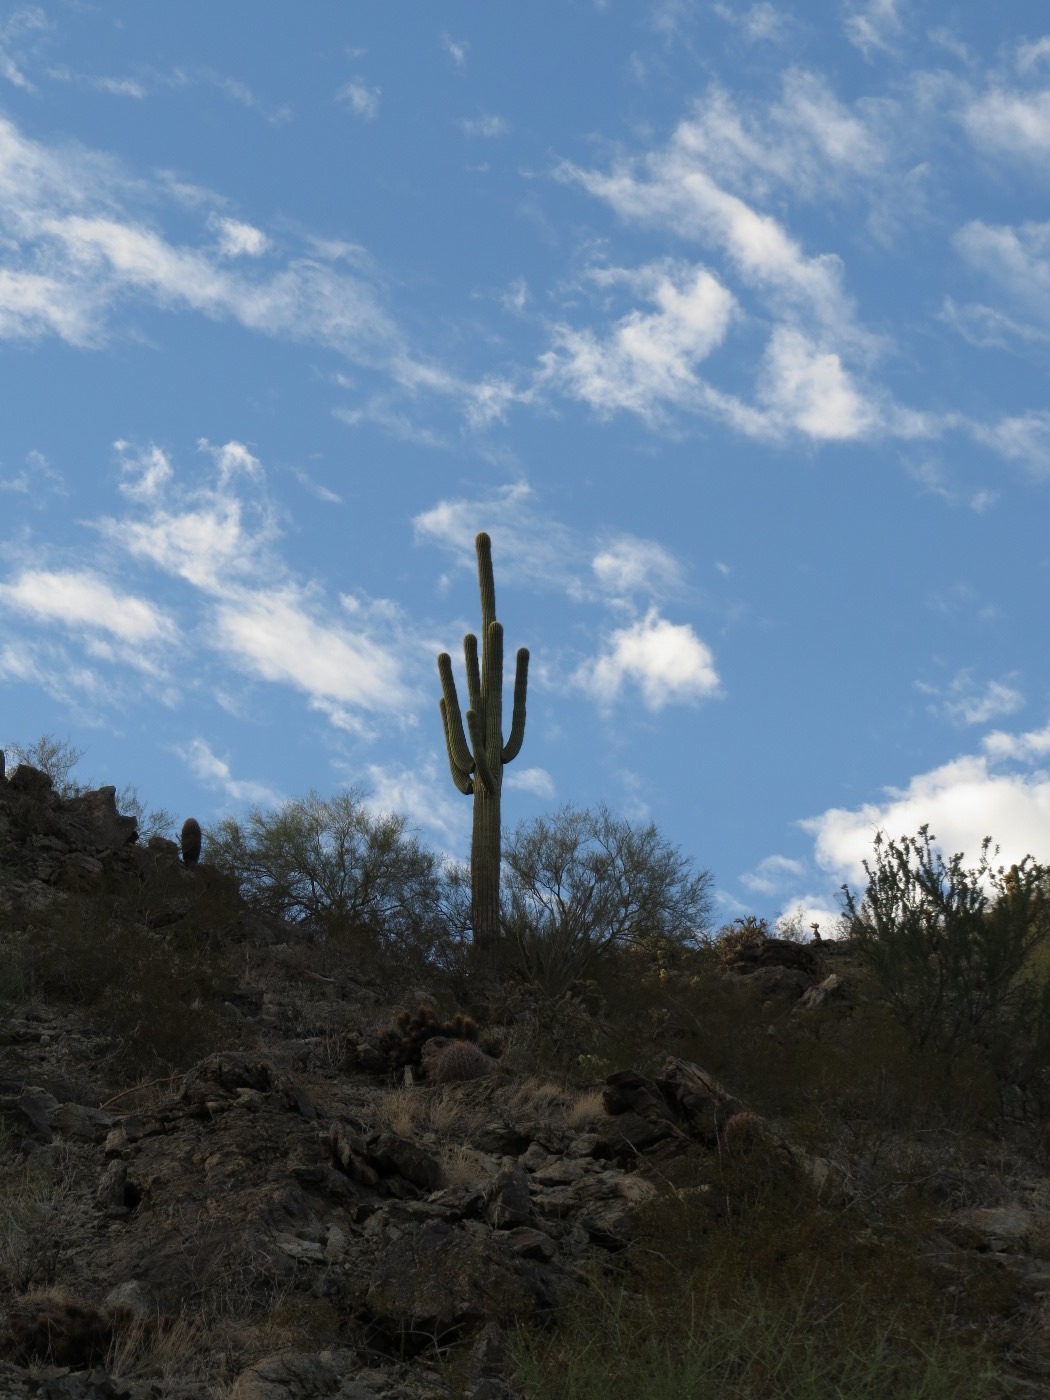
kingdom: Plantae
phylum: Tracheophyta
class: Magnoliopsida
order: Caryophyllales
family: Cactaceae
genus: Carnegiea
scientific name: Carnegiea gigantea
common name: Saguaro
